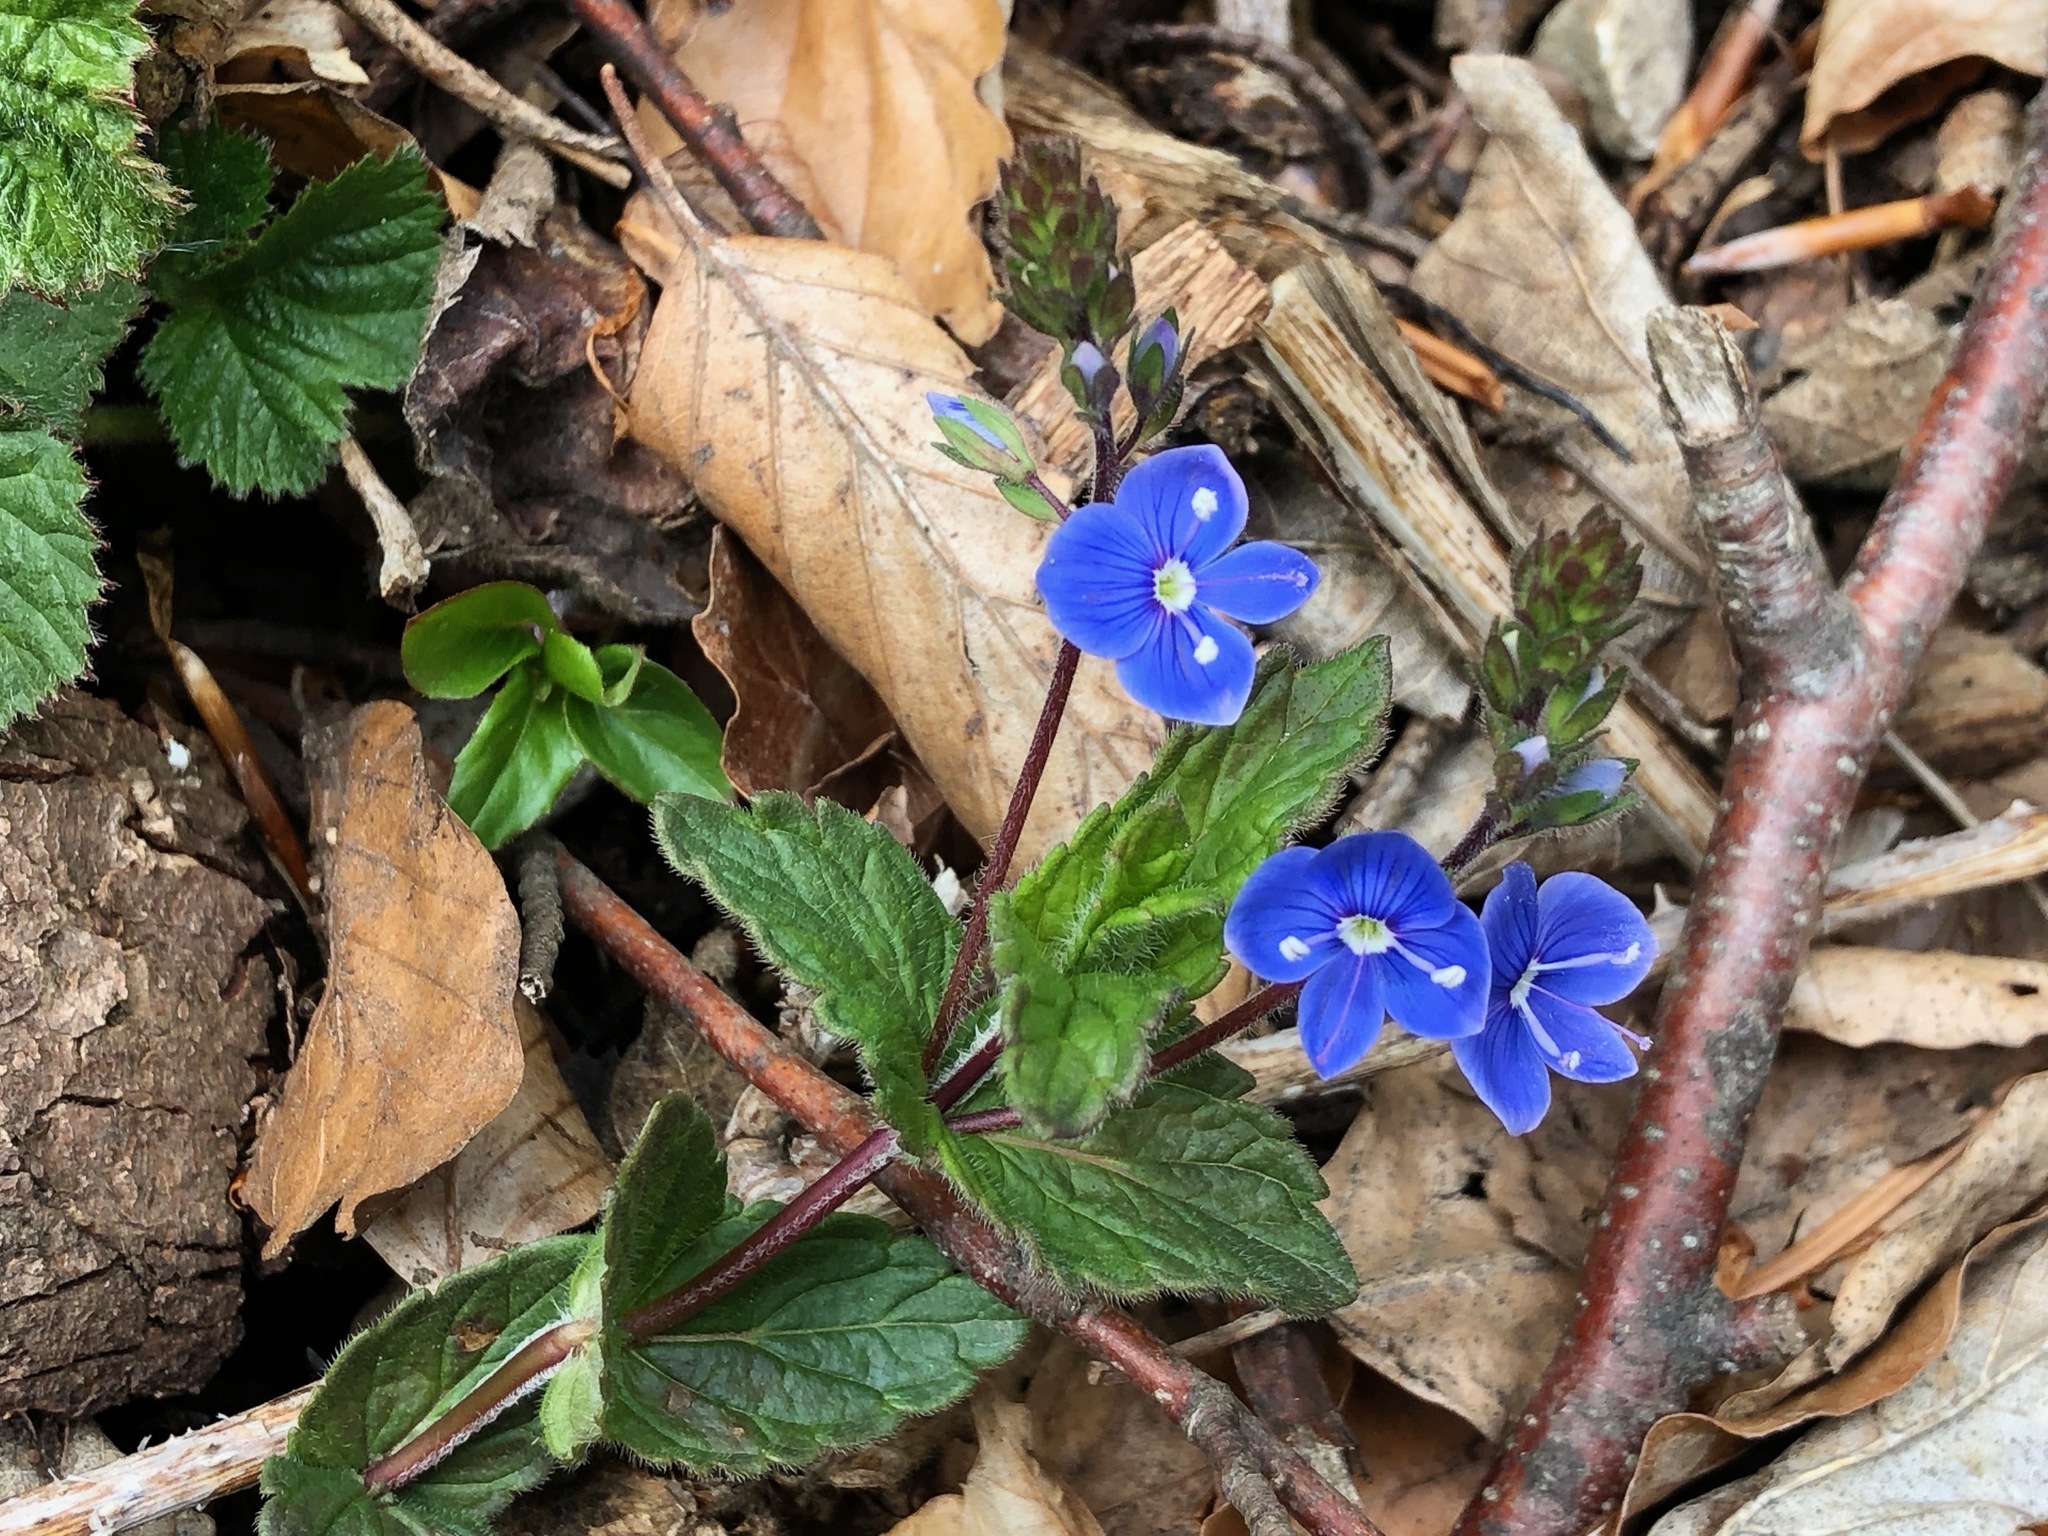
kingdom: Plantae
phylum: Tracheophyta
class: Magnoliopsida
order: Lamiales
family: Plantaginaceae
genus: Veronica
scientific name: Veronica chamaedrys
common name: Germander speedwell
